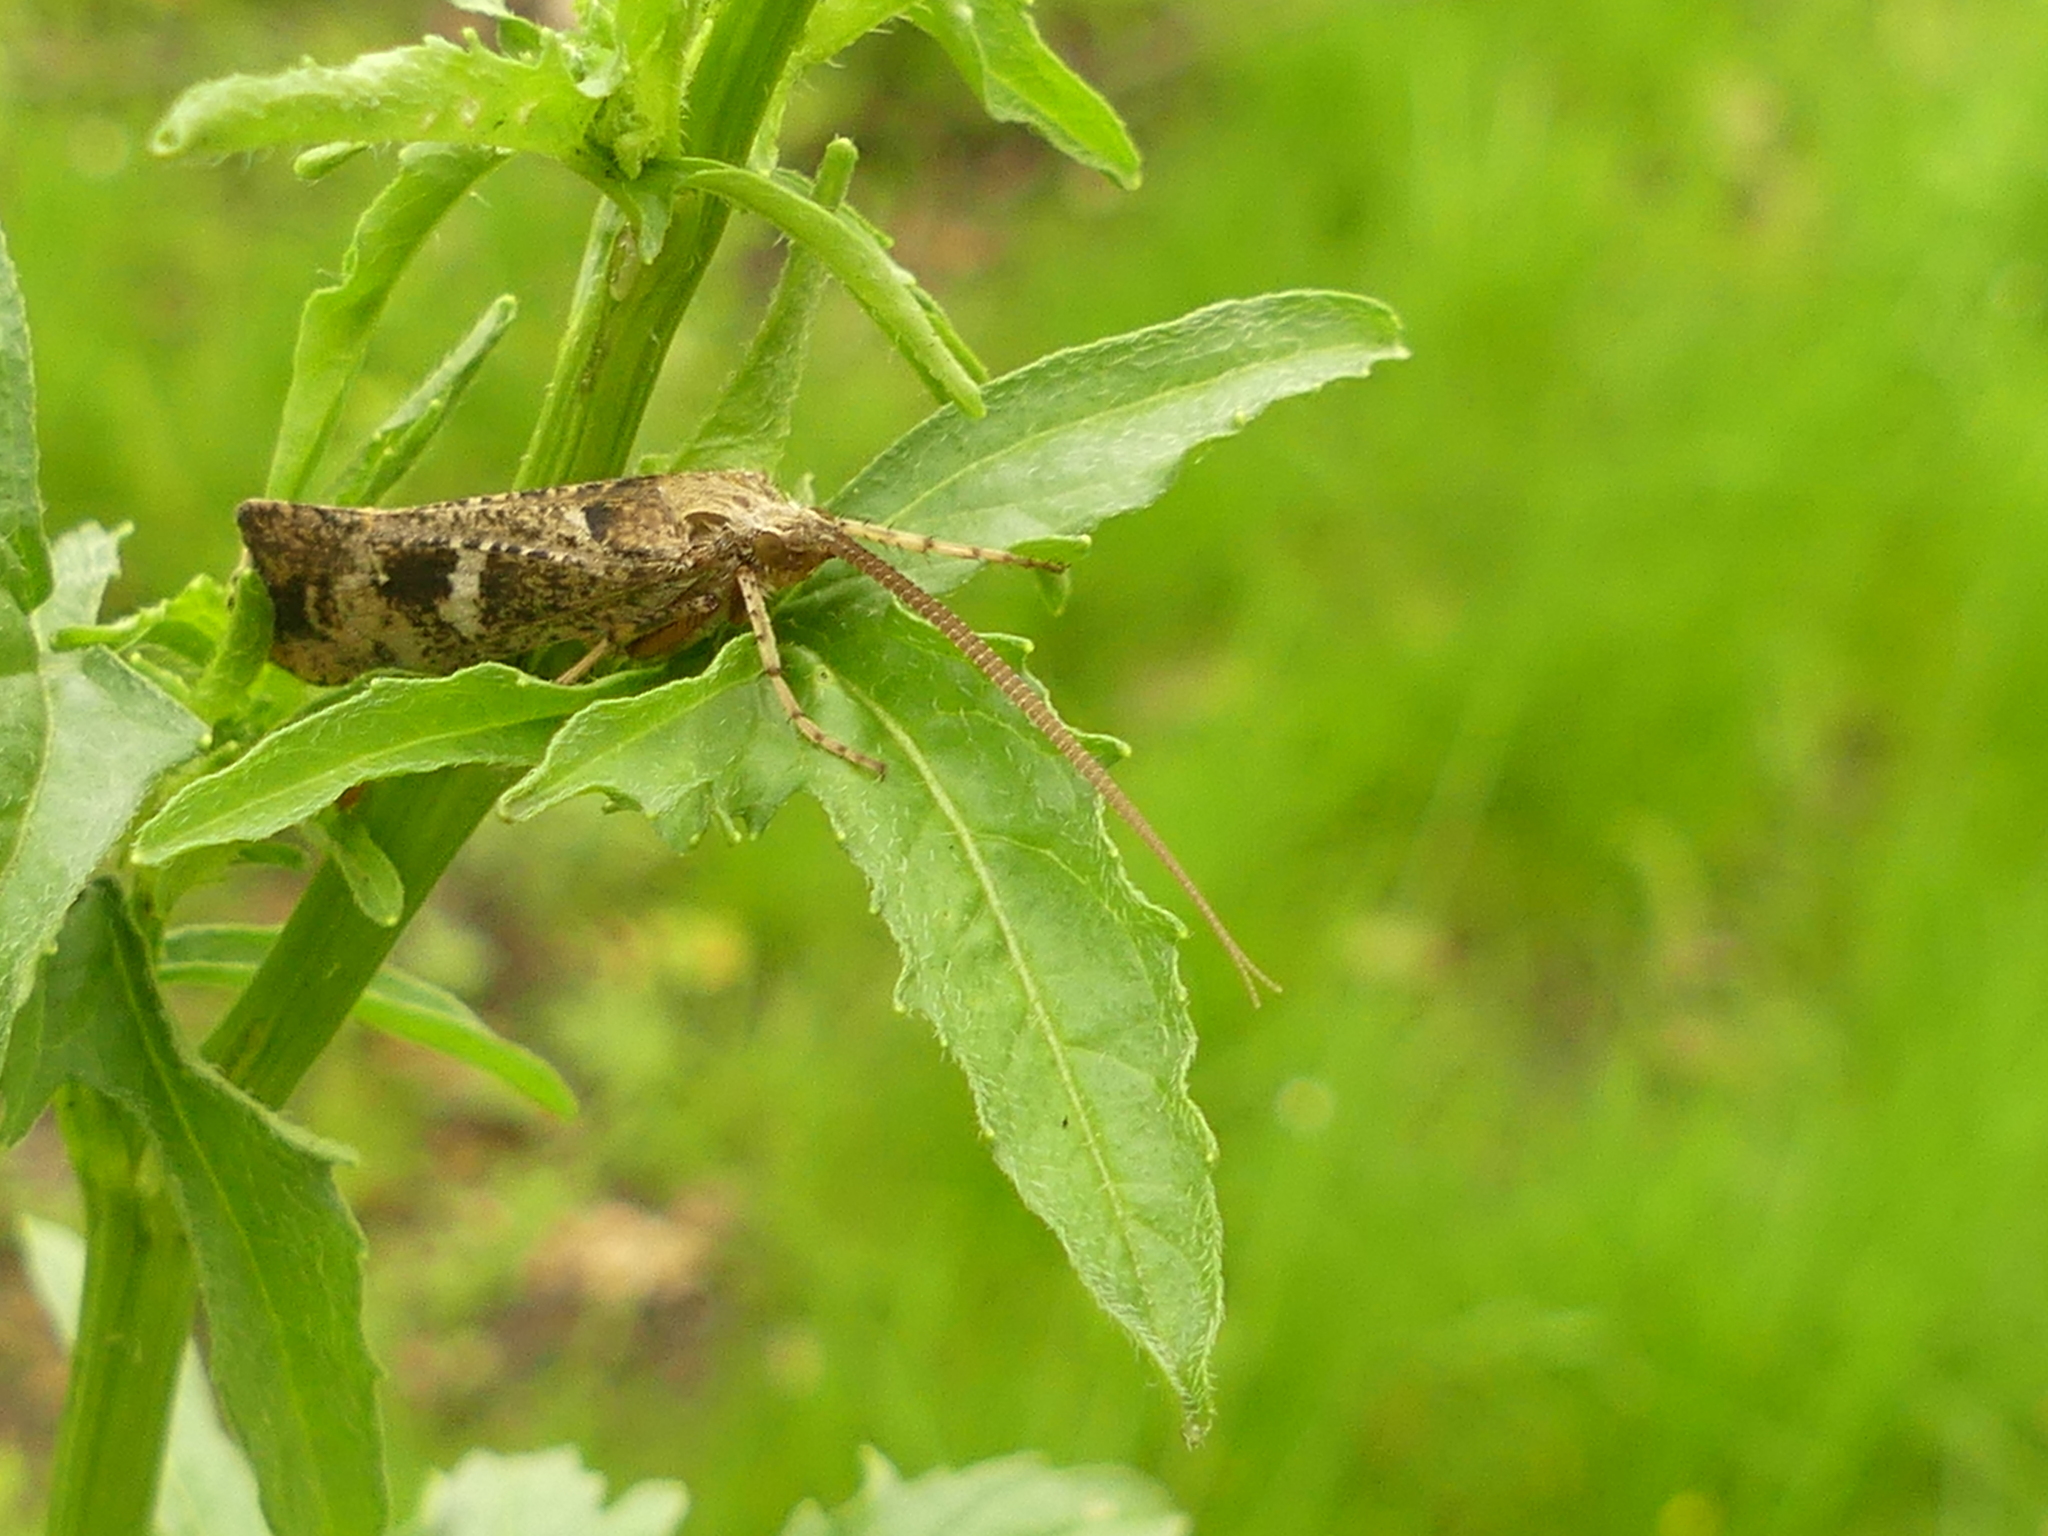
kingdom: Animalia
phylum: Arthropoda
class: Insecta
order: Trichoptera
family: Limnephilidae
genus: Glyphotaelius
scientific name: Glyphotaelius pellucidus
